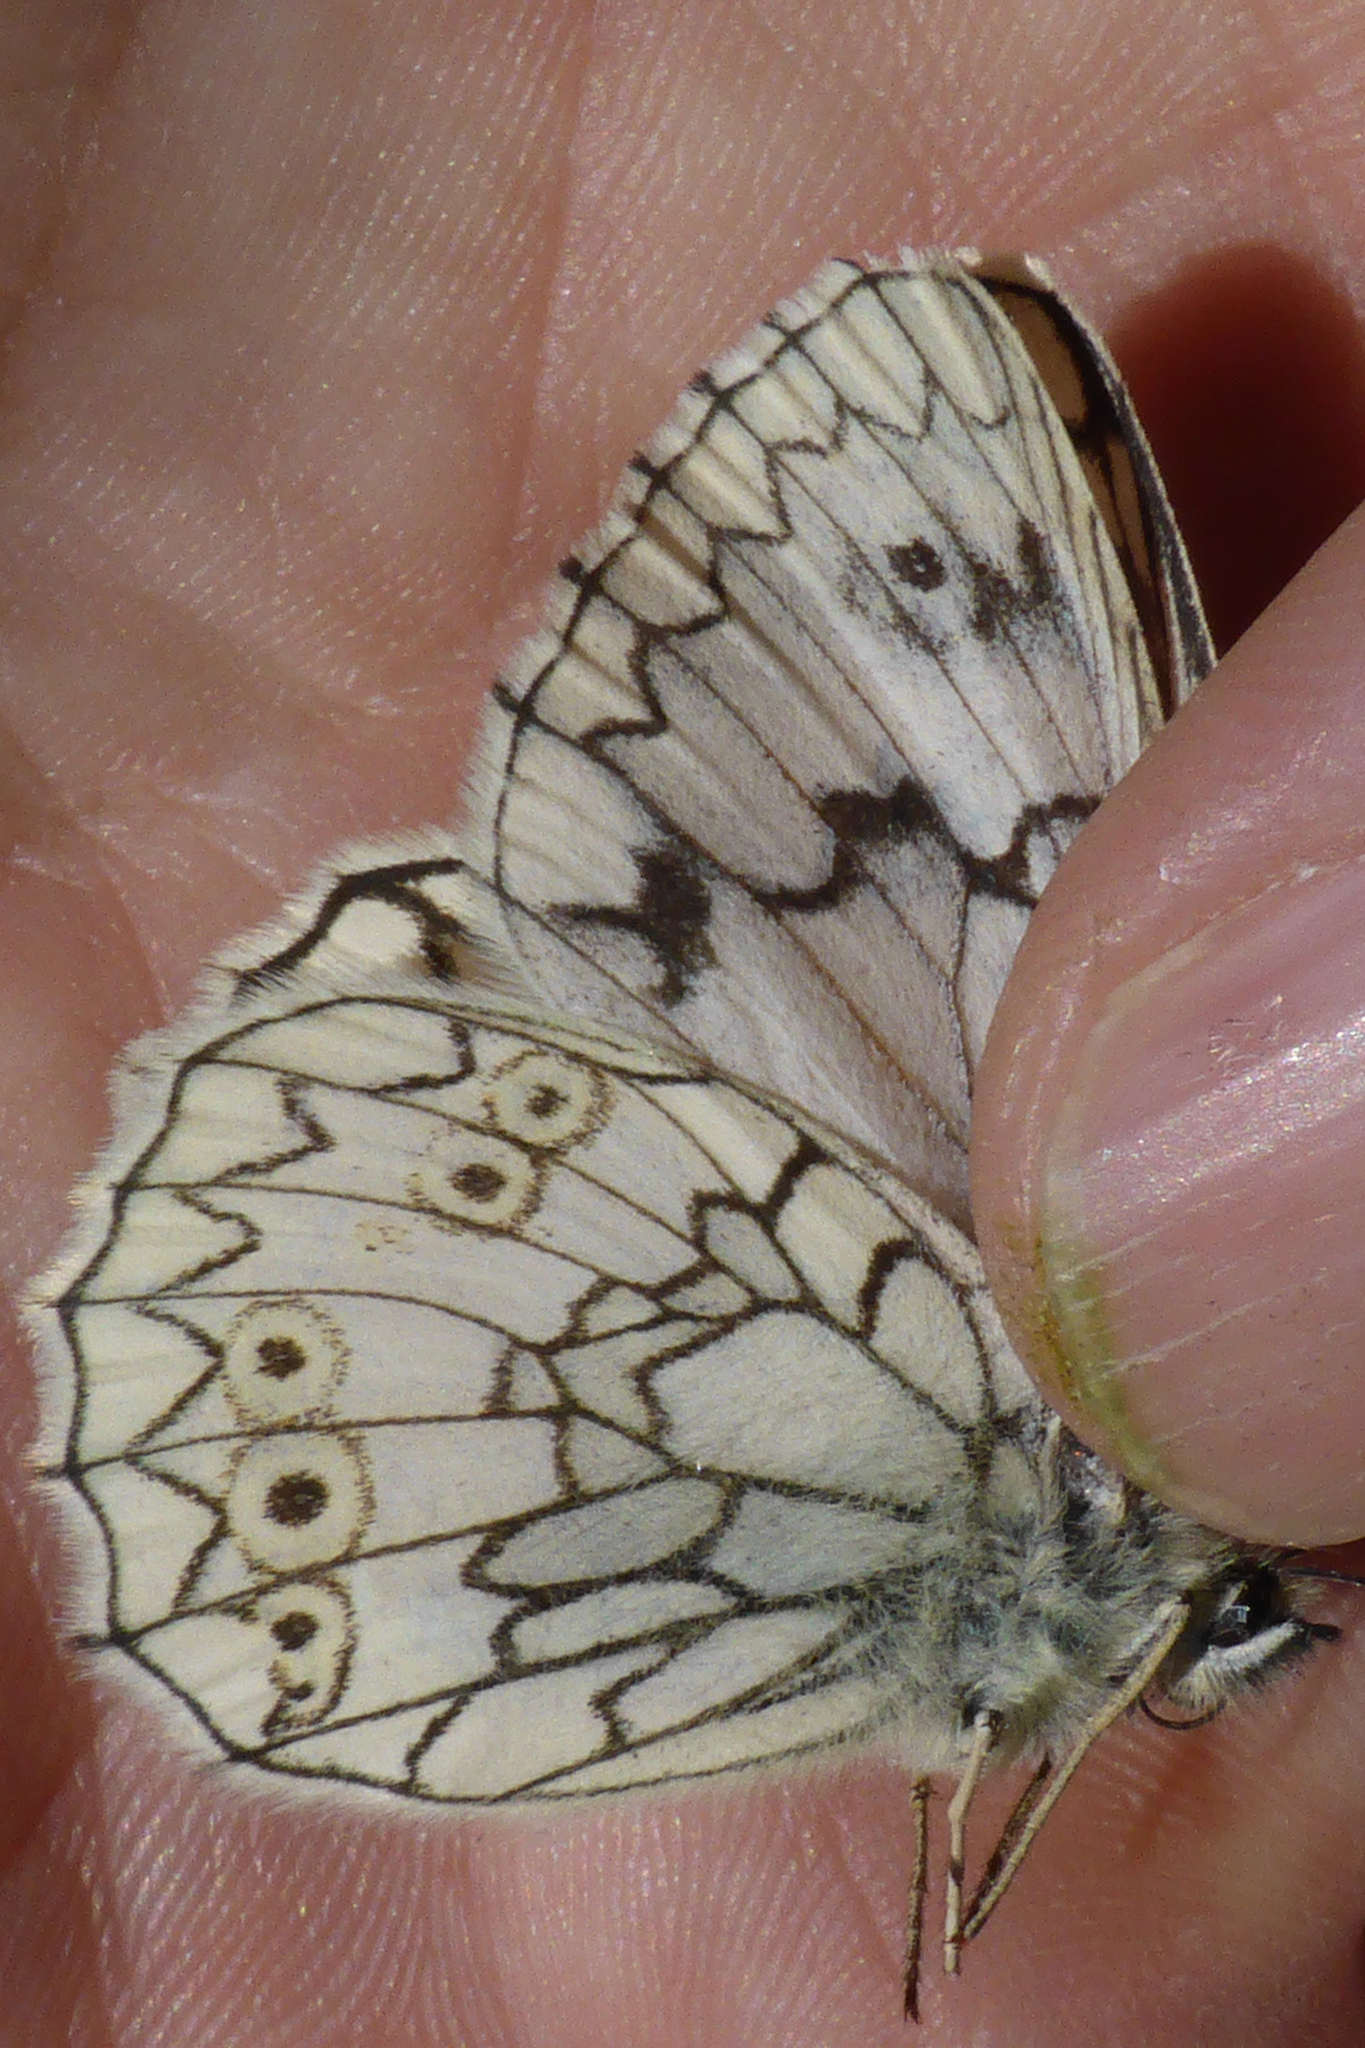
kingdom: Animalia
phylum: Arthropoda
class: Insecta
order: Lepidoptera
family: Nymphalidae
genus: Melanargia
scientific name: Melanargia japygia
